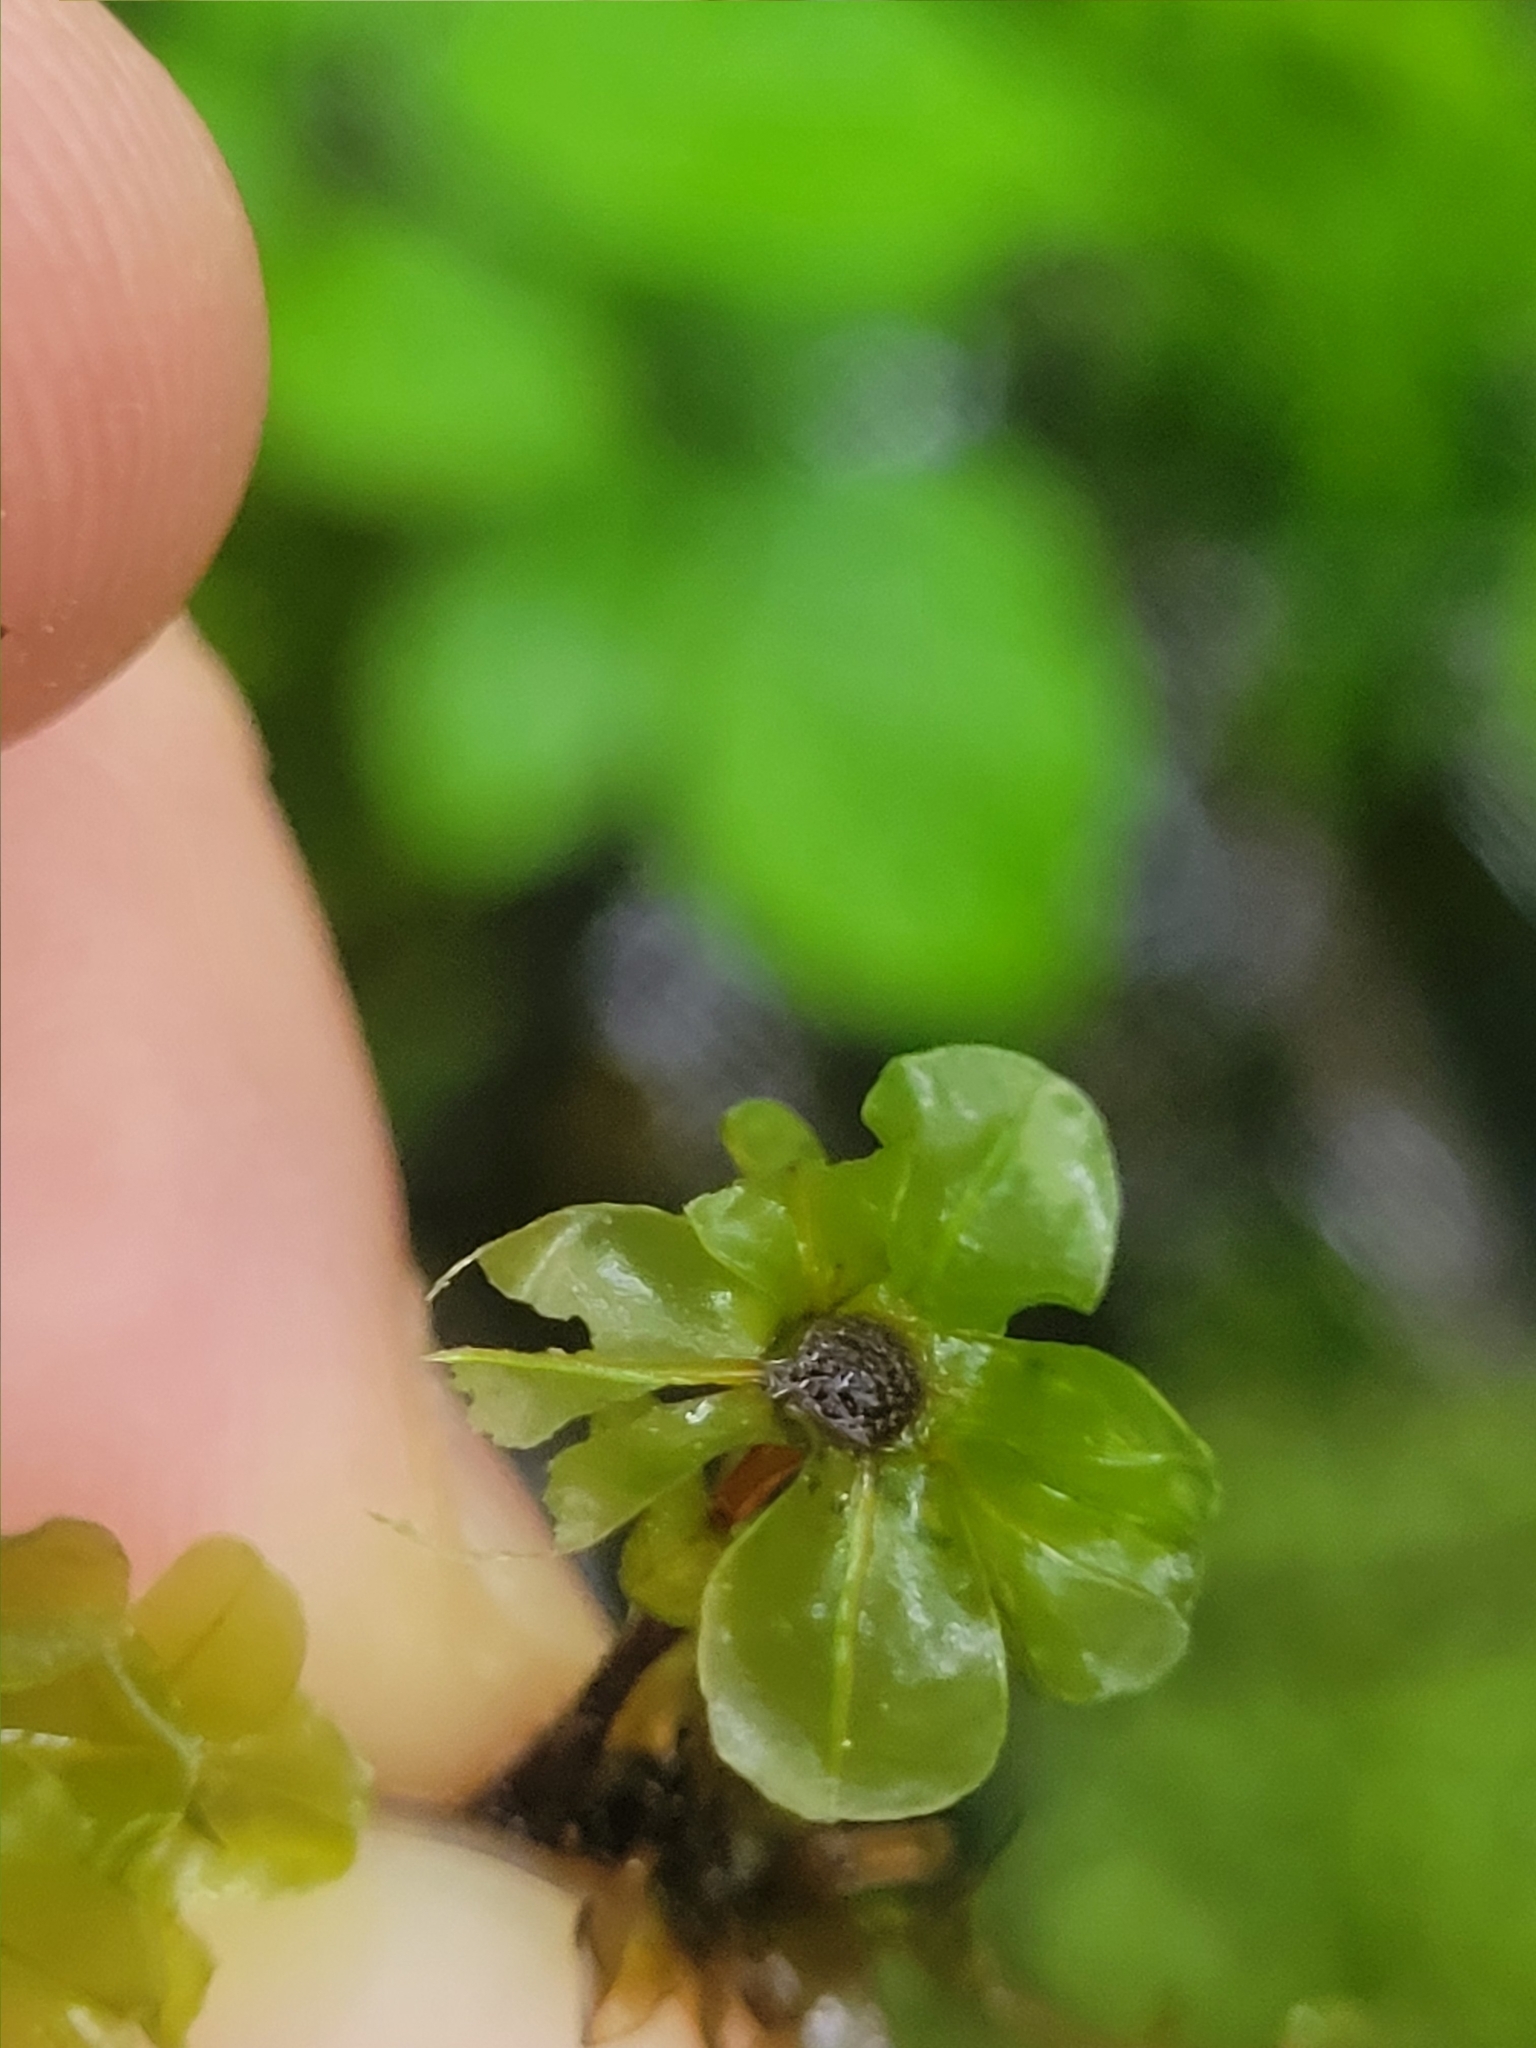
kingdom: Plantae
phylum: Bryophyta
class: Bryopsida
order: Bryales
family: Mniaceae
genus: Rhizomnium
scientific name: Rhizomnium punctatum
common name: Dotted leafy moss
